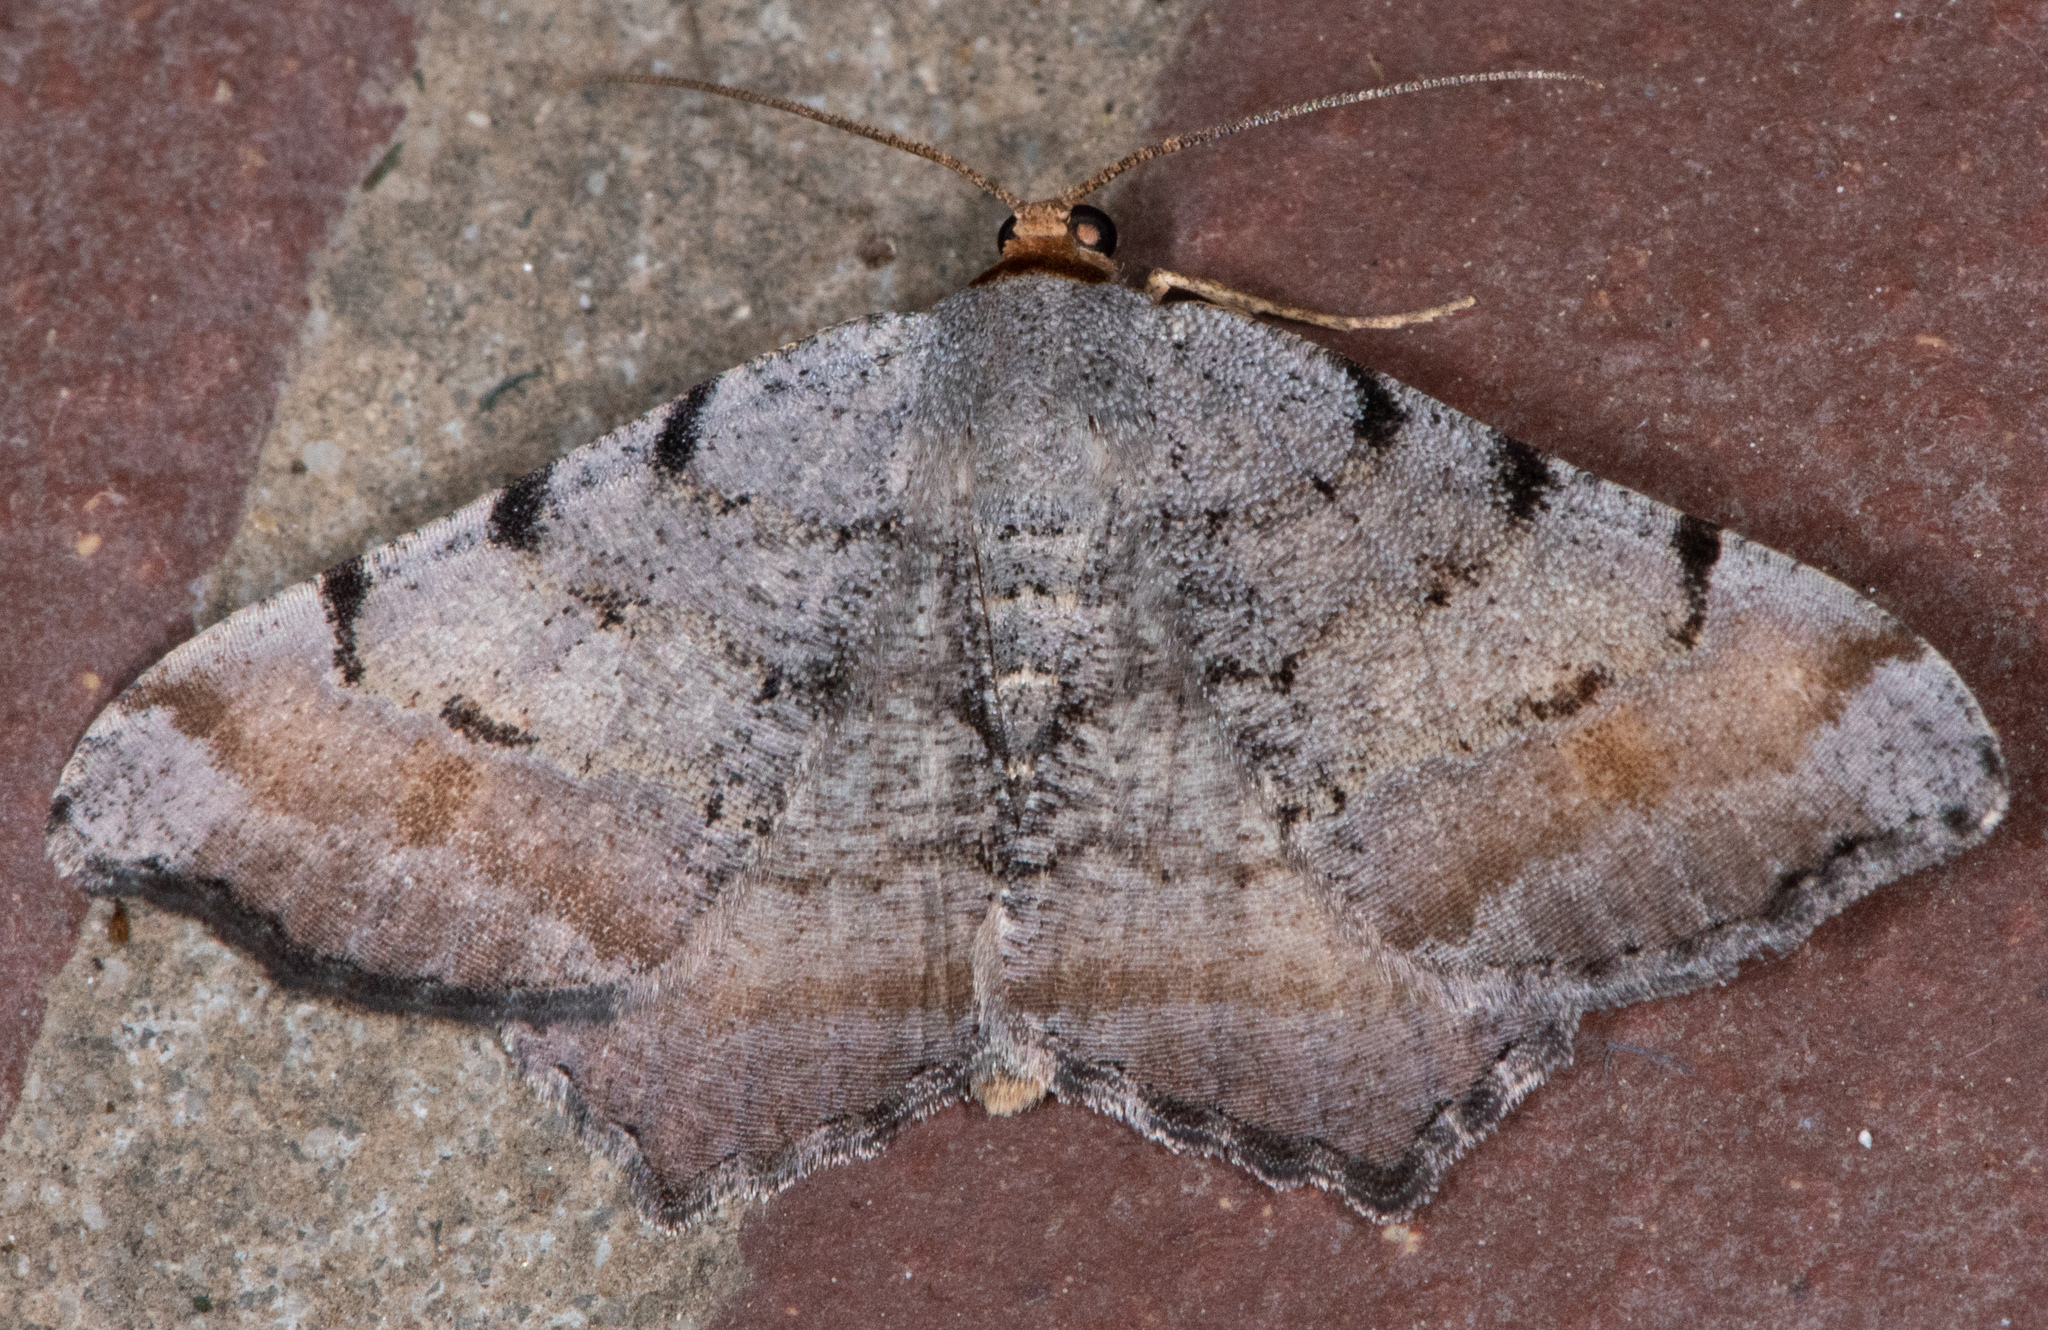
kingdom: Animalia
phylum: Arthropoda
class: Insecta
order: Lepidoptera
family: Geometridae
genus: Macaria
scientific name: Macaria adonis
